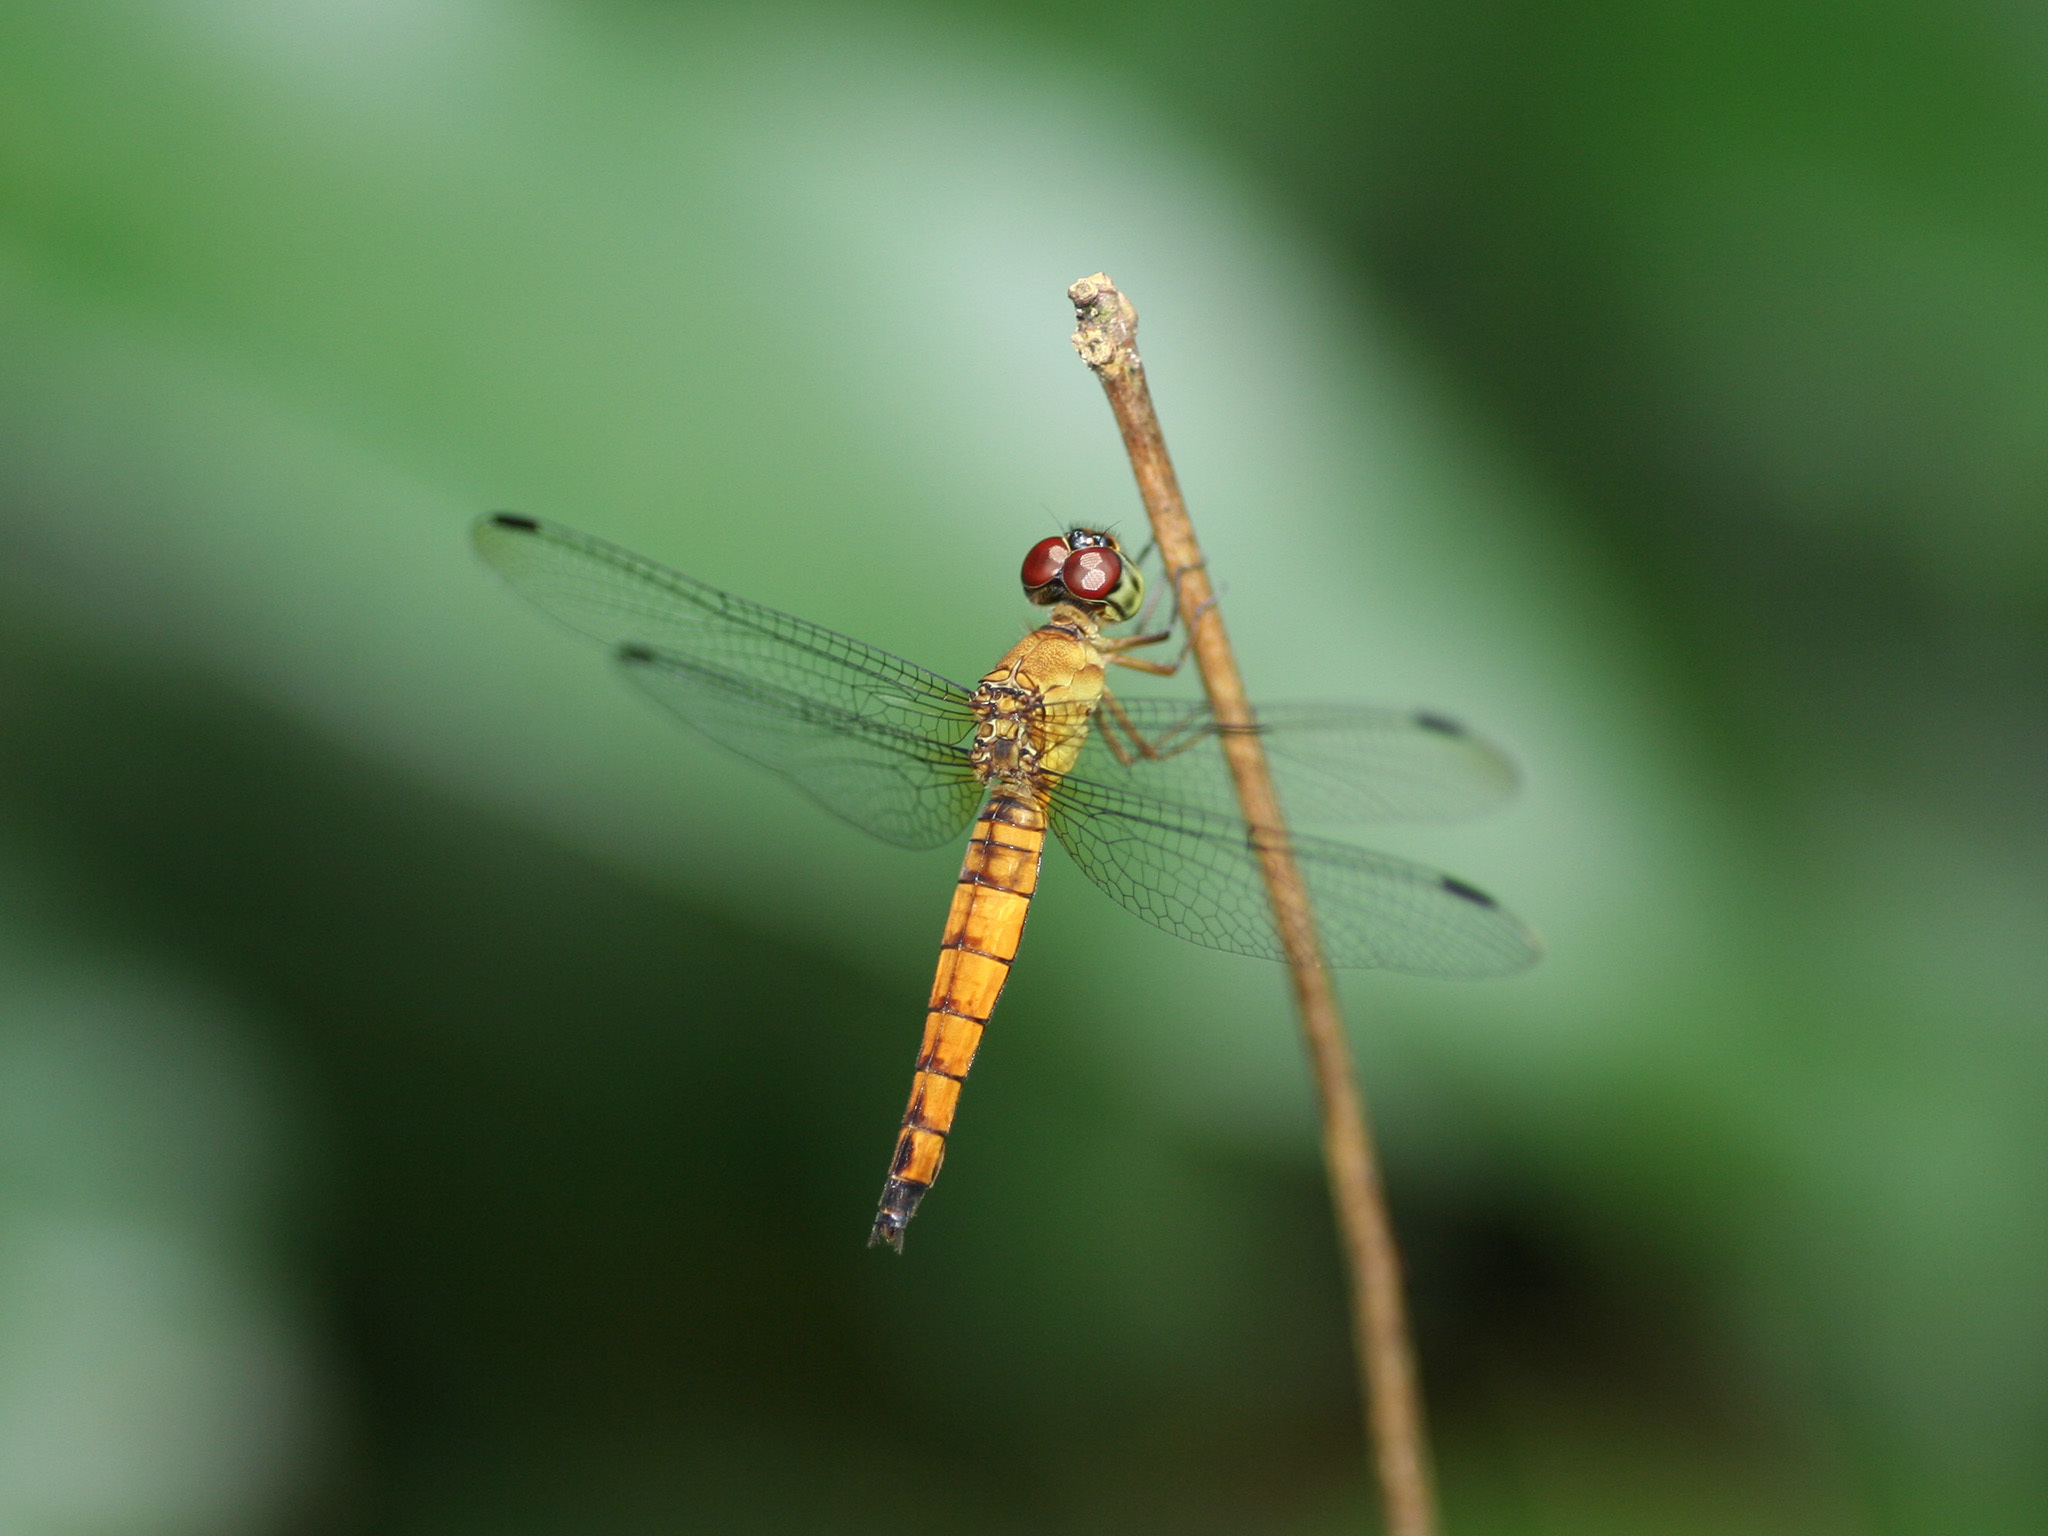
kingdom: Animalia
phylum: Arthropoda
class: Insecta
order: Odonata
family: Libellulidae
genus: Orchithemis
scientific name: Orchithemis pulcherrima
